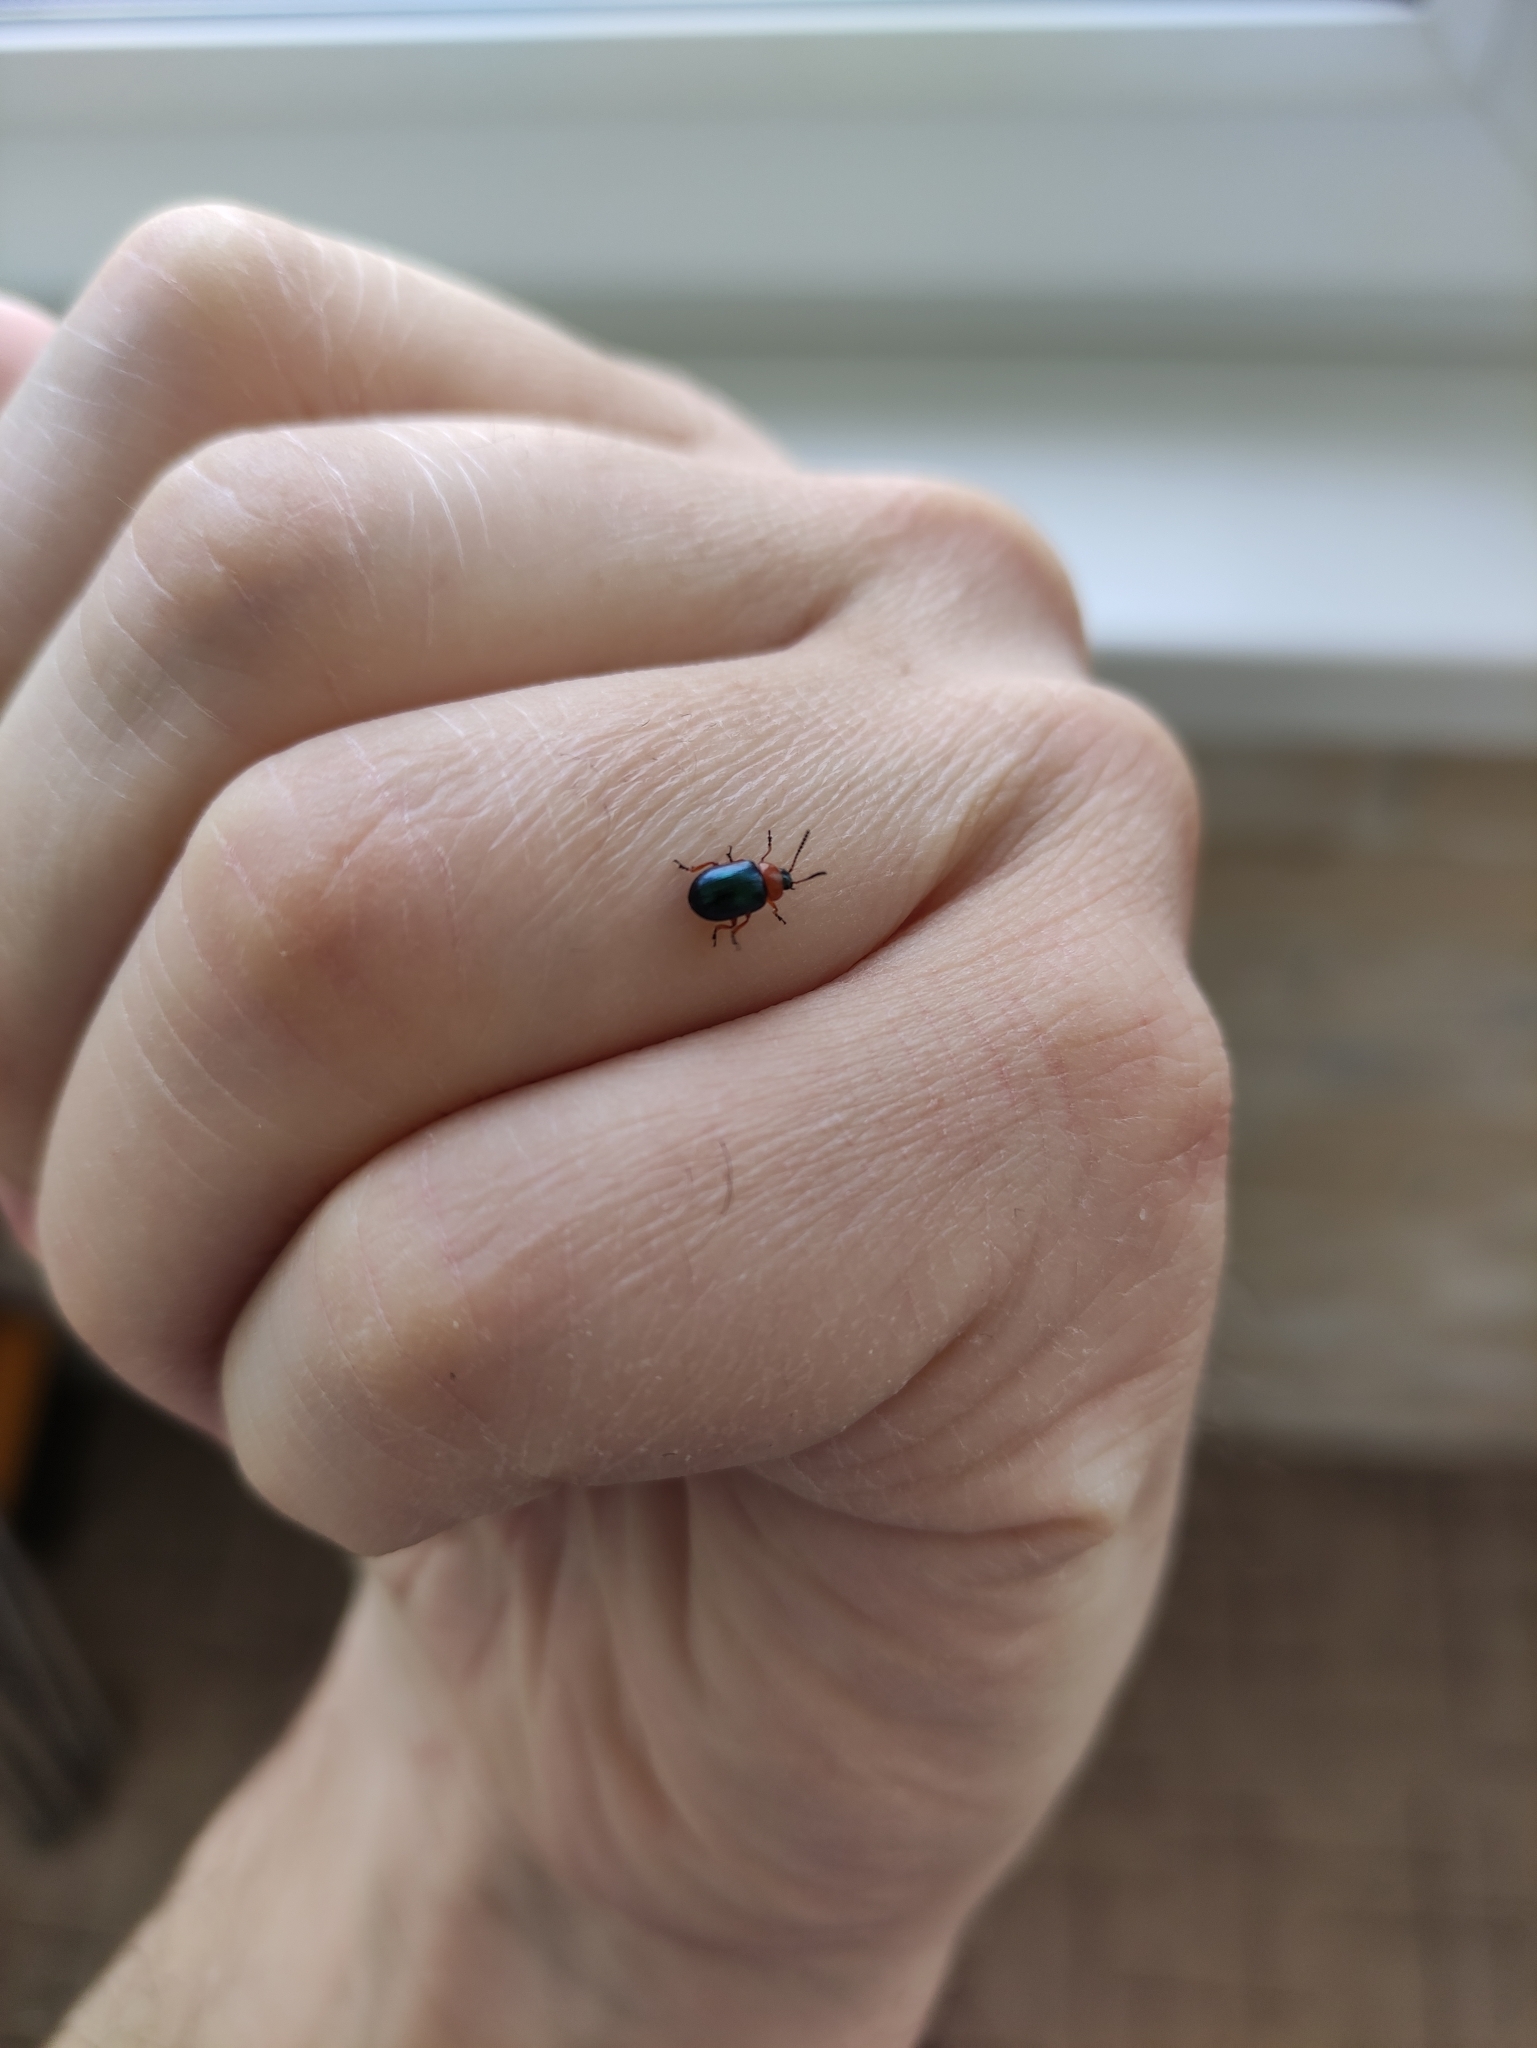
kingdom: Animalia
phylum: Arthropoda
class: Insecta
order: Coleoptera
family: Chrysomelidae
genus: Gastrophysa
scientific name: Gastrophysa polygoni
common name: Knotweed leaf beetle
